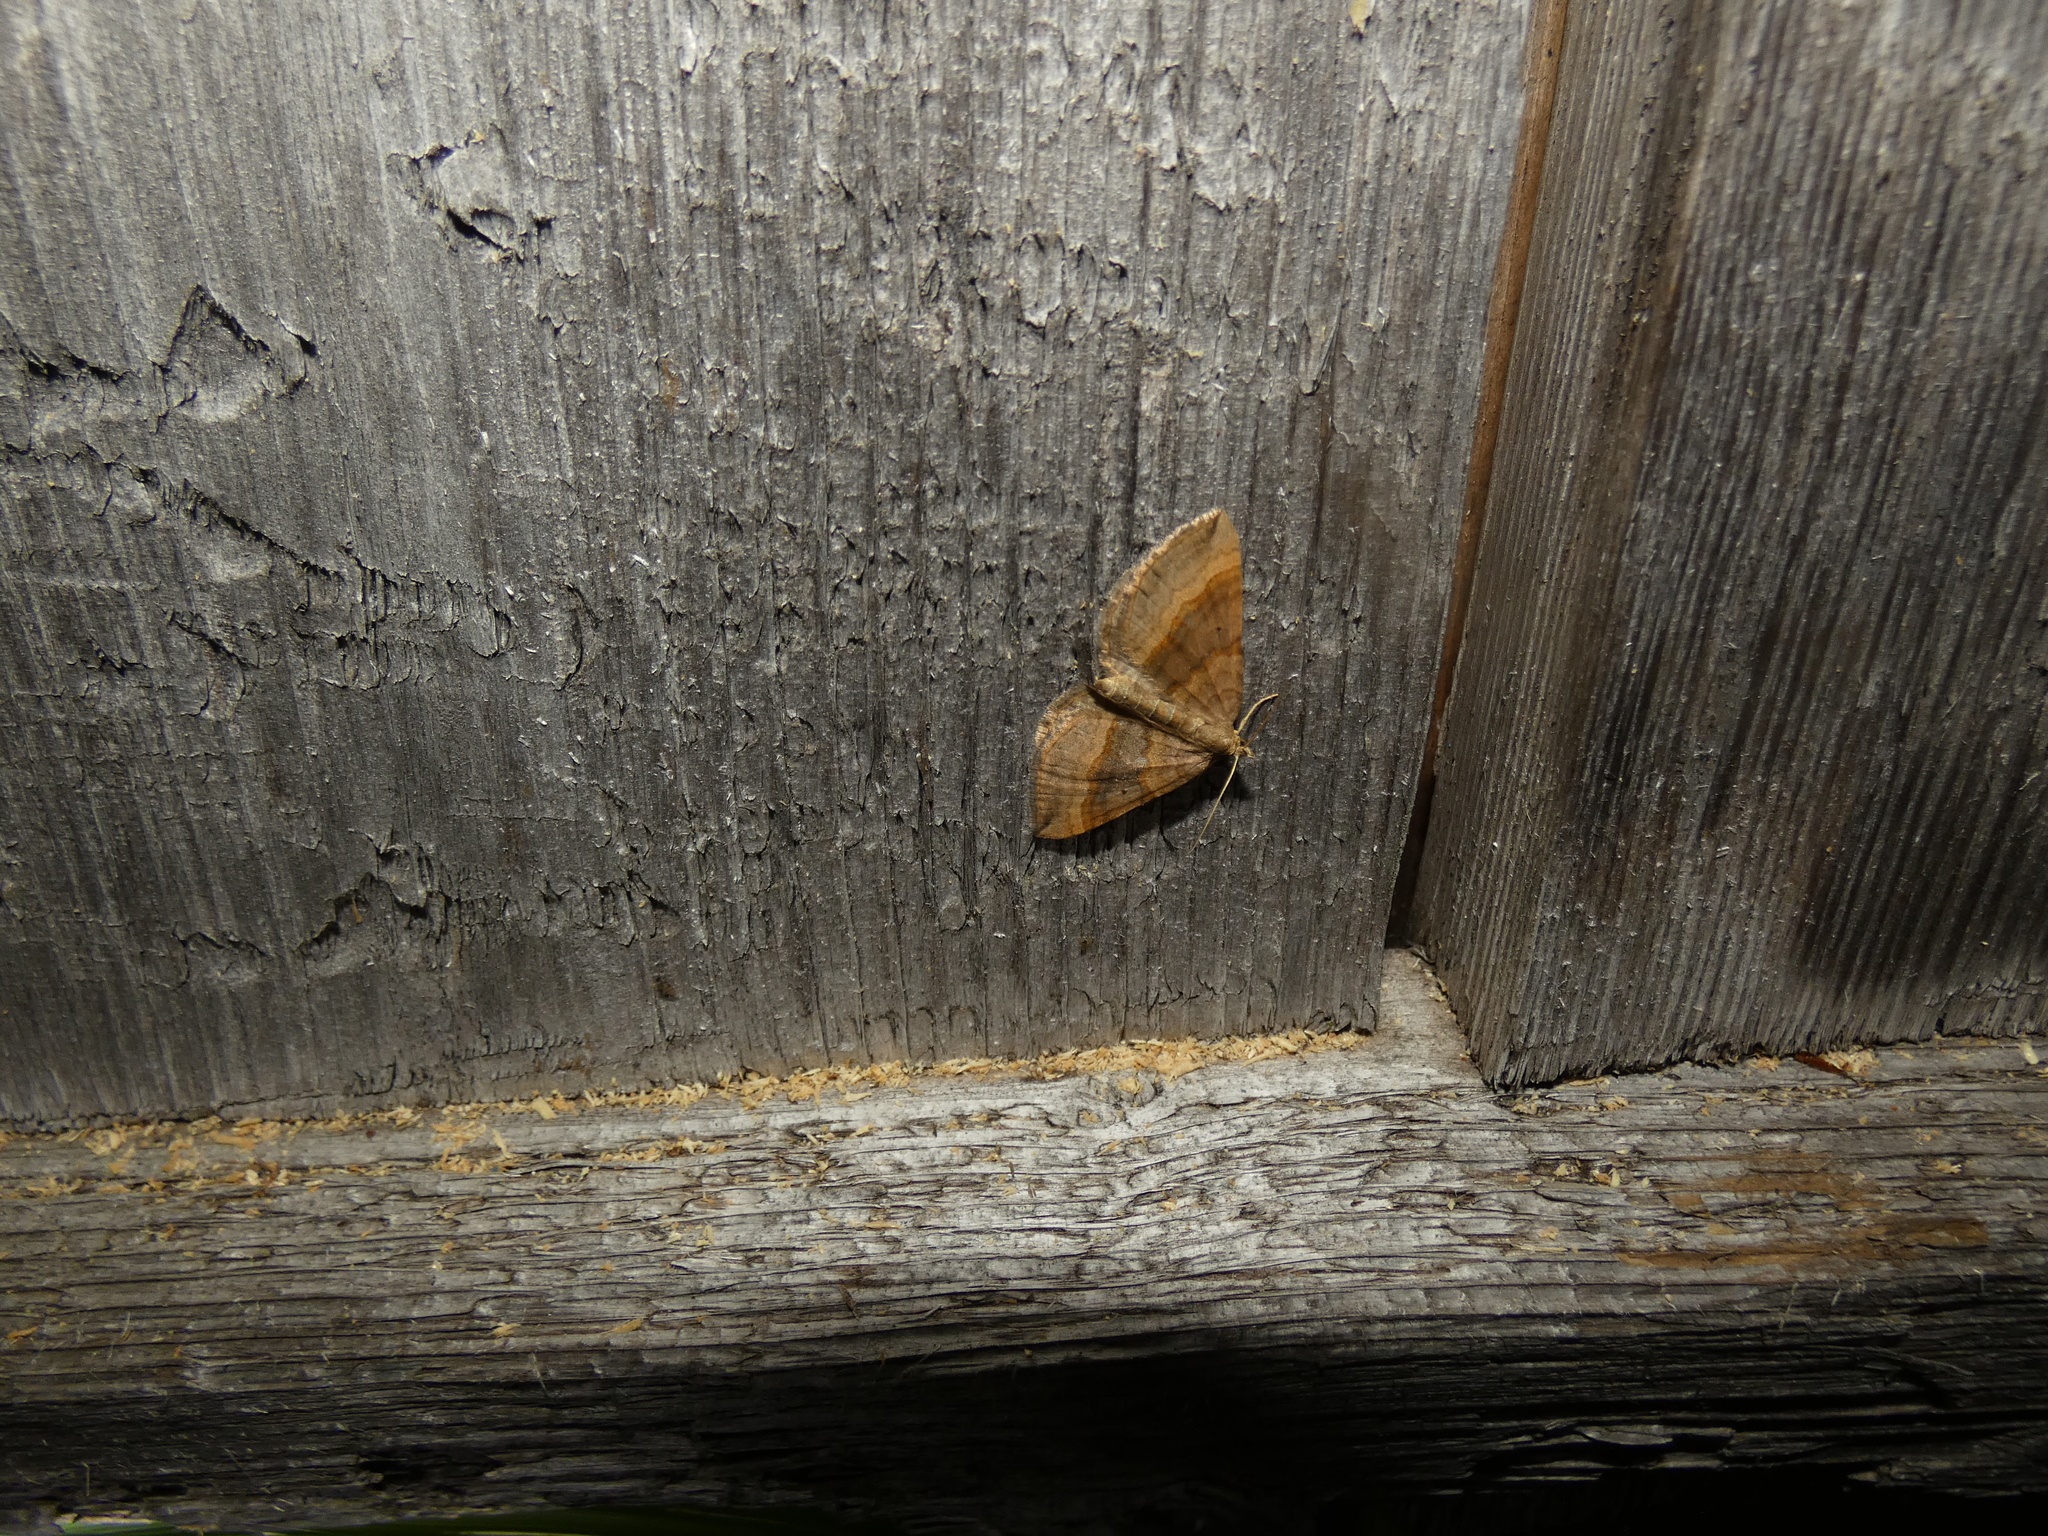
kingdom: Animalia
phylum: Arthropoda
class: Insecta
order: Lepidoptera
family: Geometridae
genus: Scotopteryx
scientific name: Scotopteryx chenopodiata
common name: Shaded broad-bar
